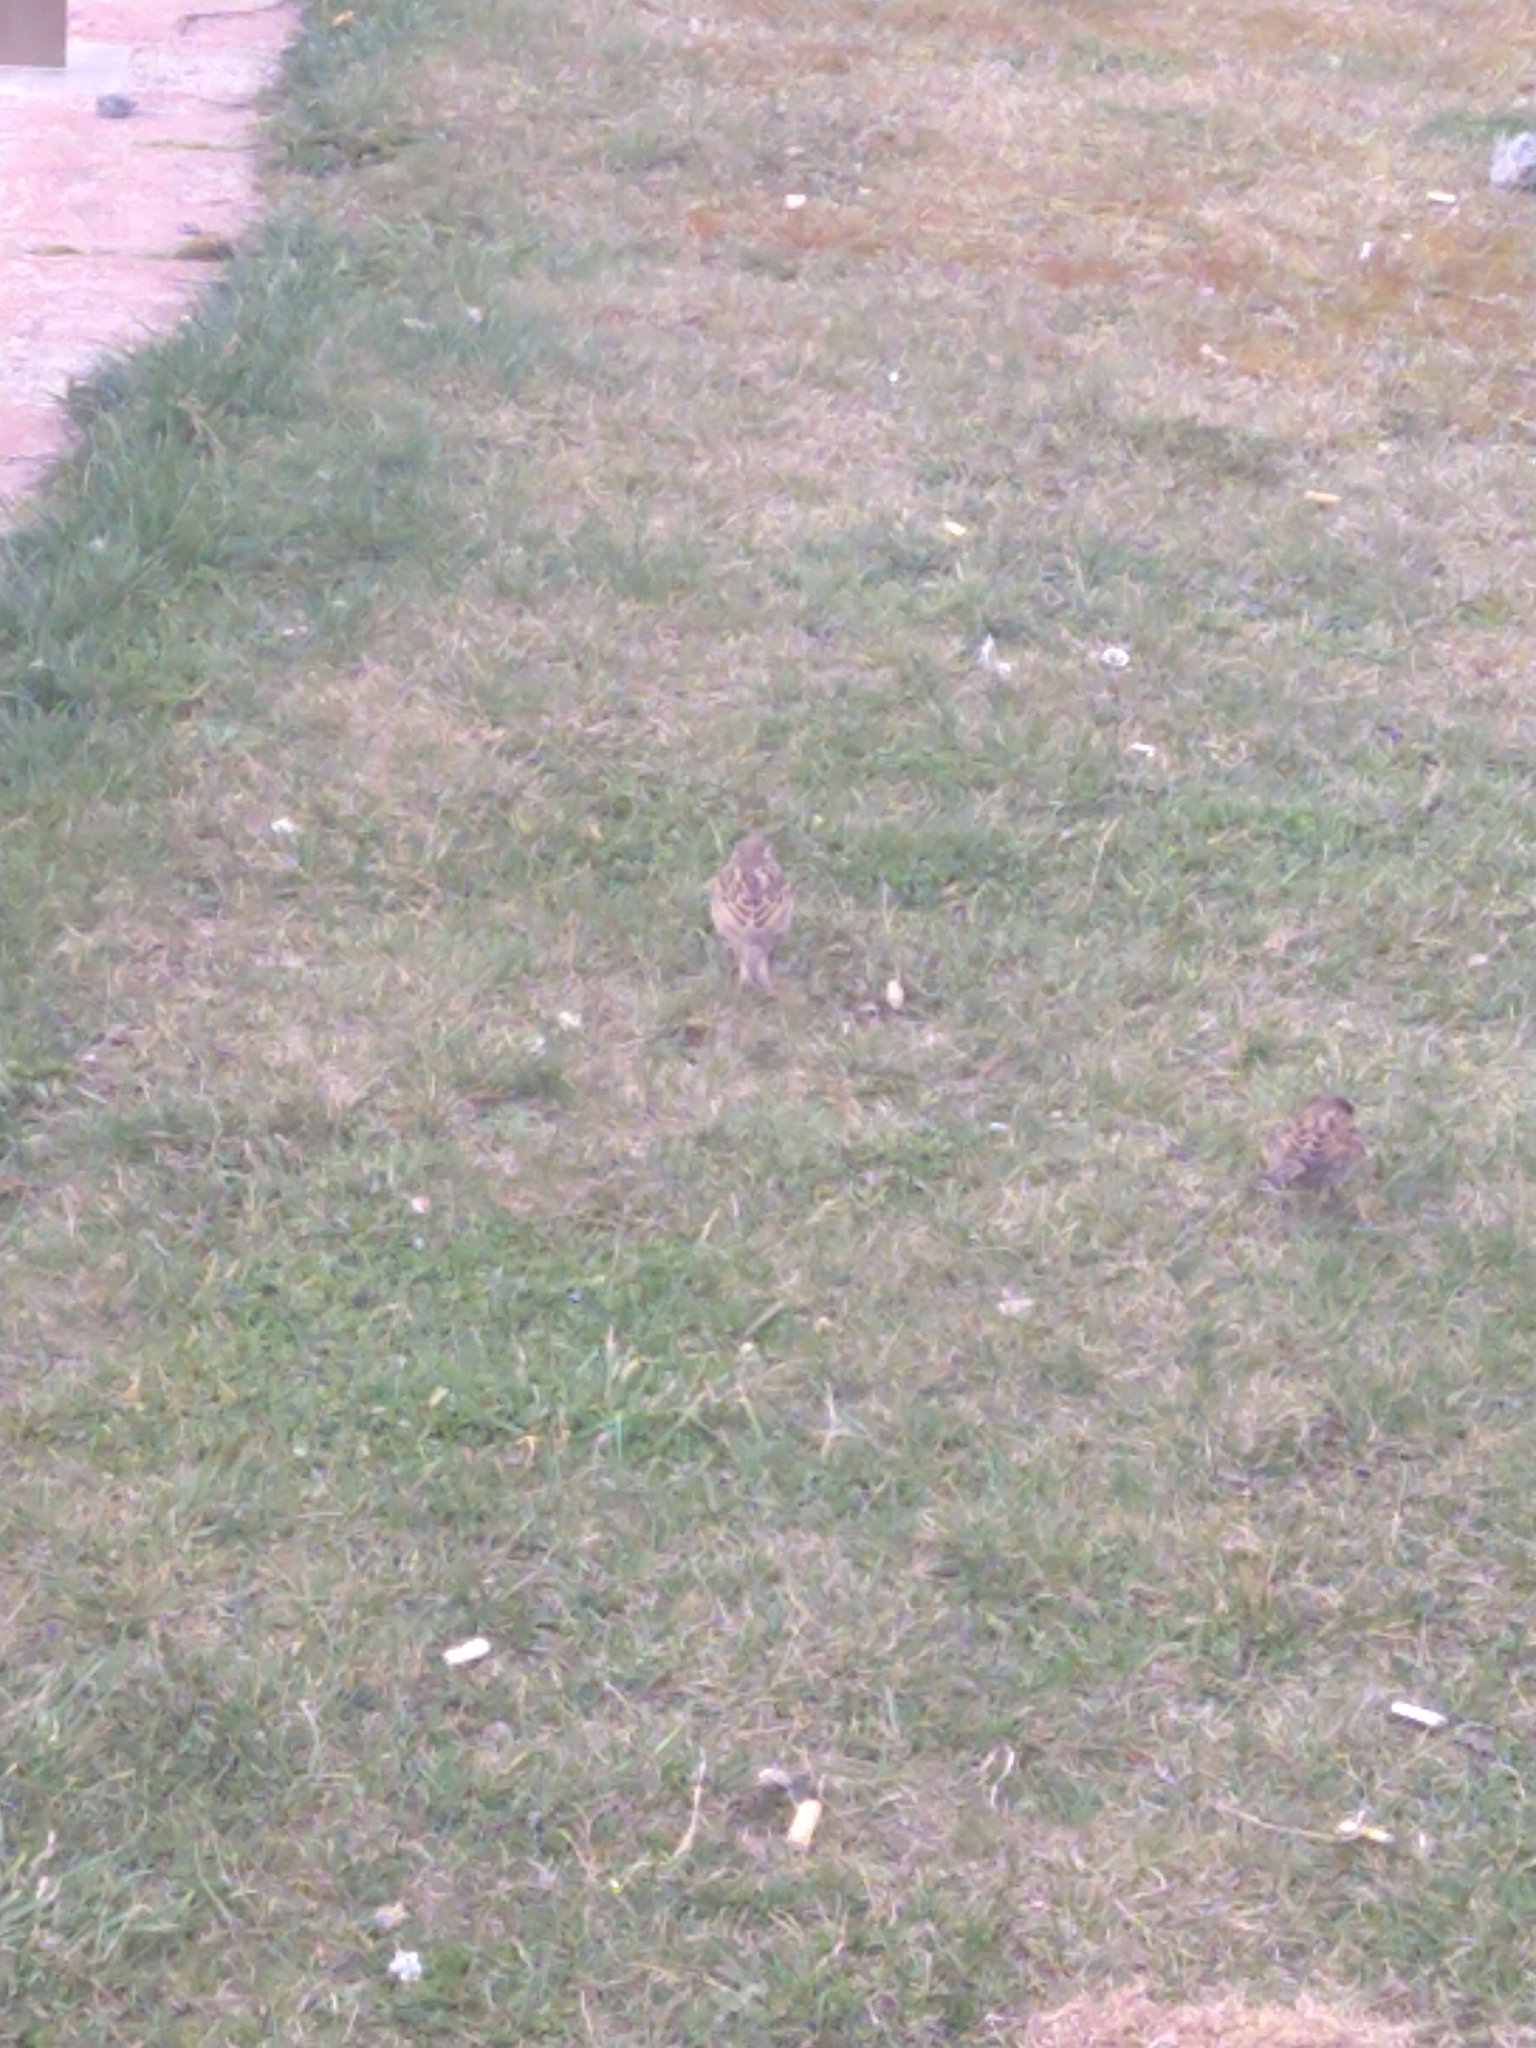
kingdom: Animalia
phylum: Chordata
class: Aves
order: Passeriformes
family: Passeridae
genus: Passer
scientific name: Passer domesticus
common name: House sparrow
